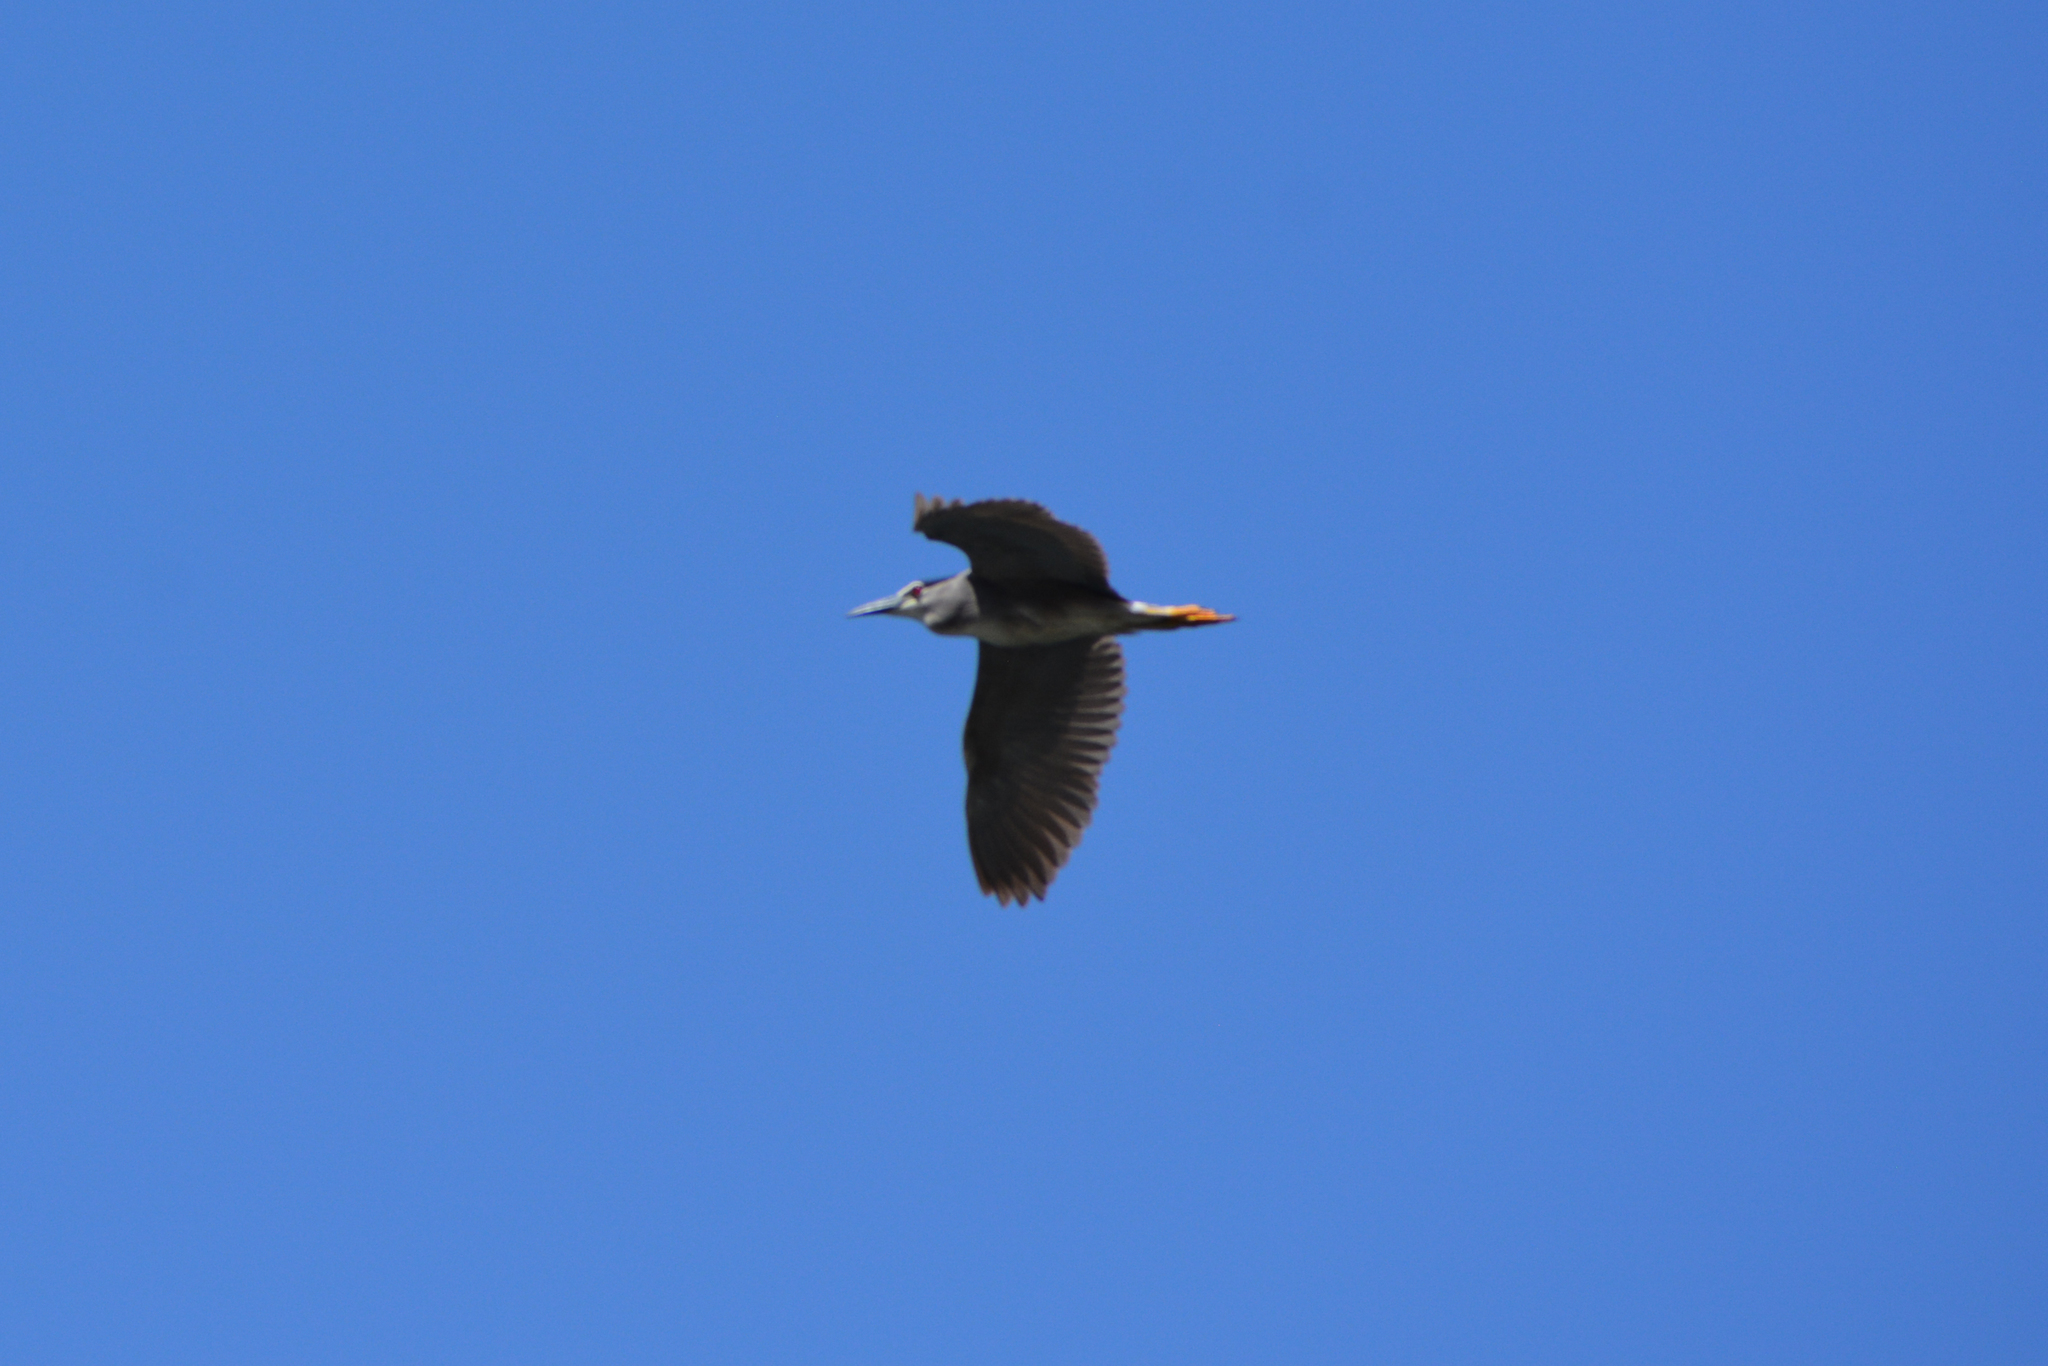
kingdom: Animalia
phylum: Chordata
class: Aves
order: Pelecaniformes
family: Ardeidae
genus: Nycticorax
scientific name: Nycticorax nycticorax
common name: Black-crowned night heron
